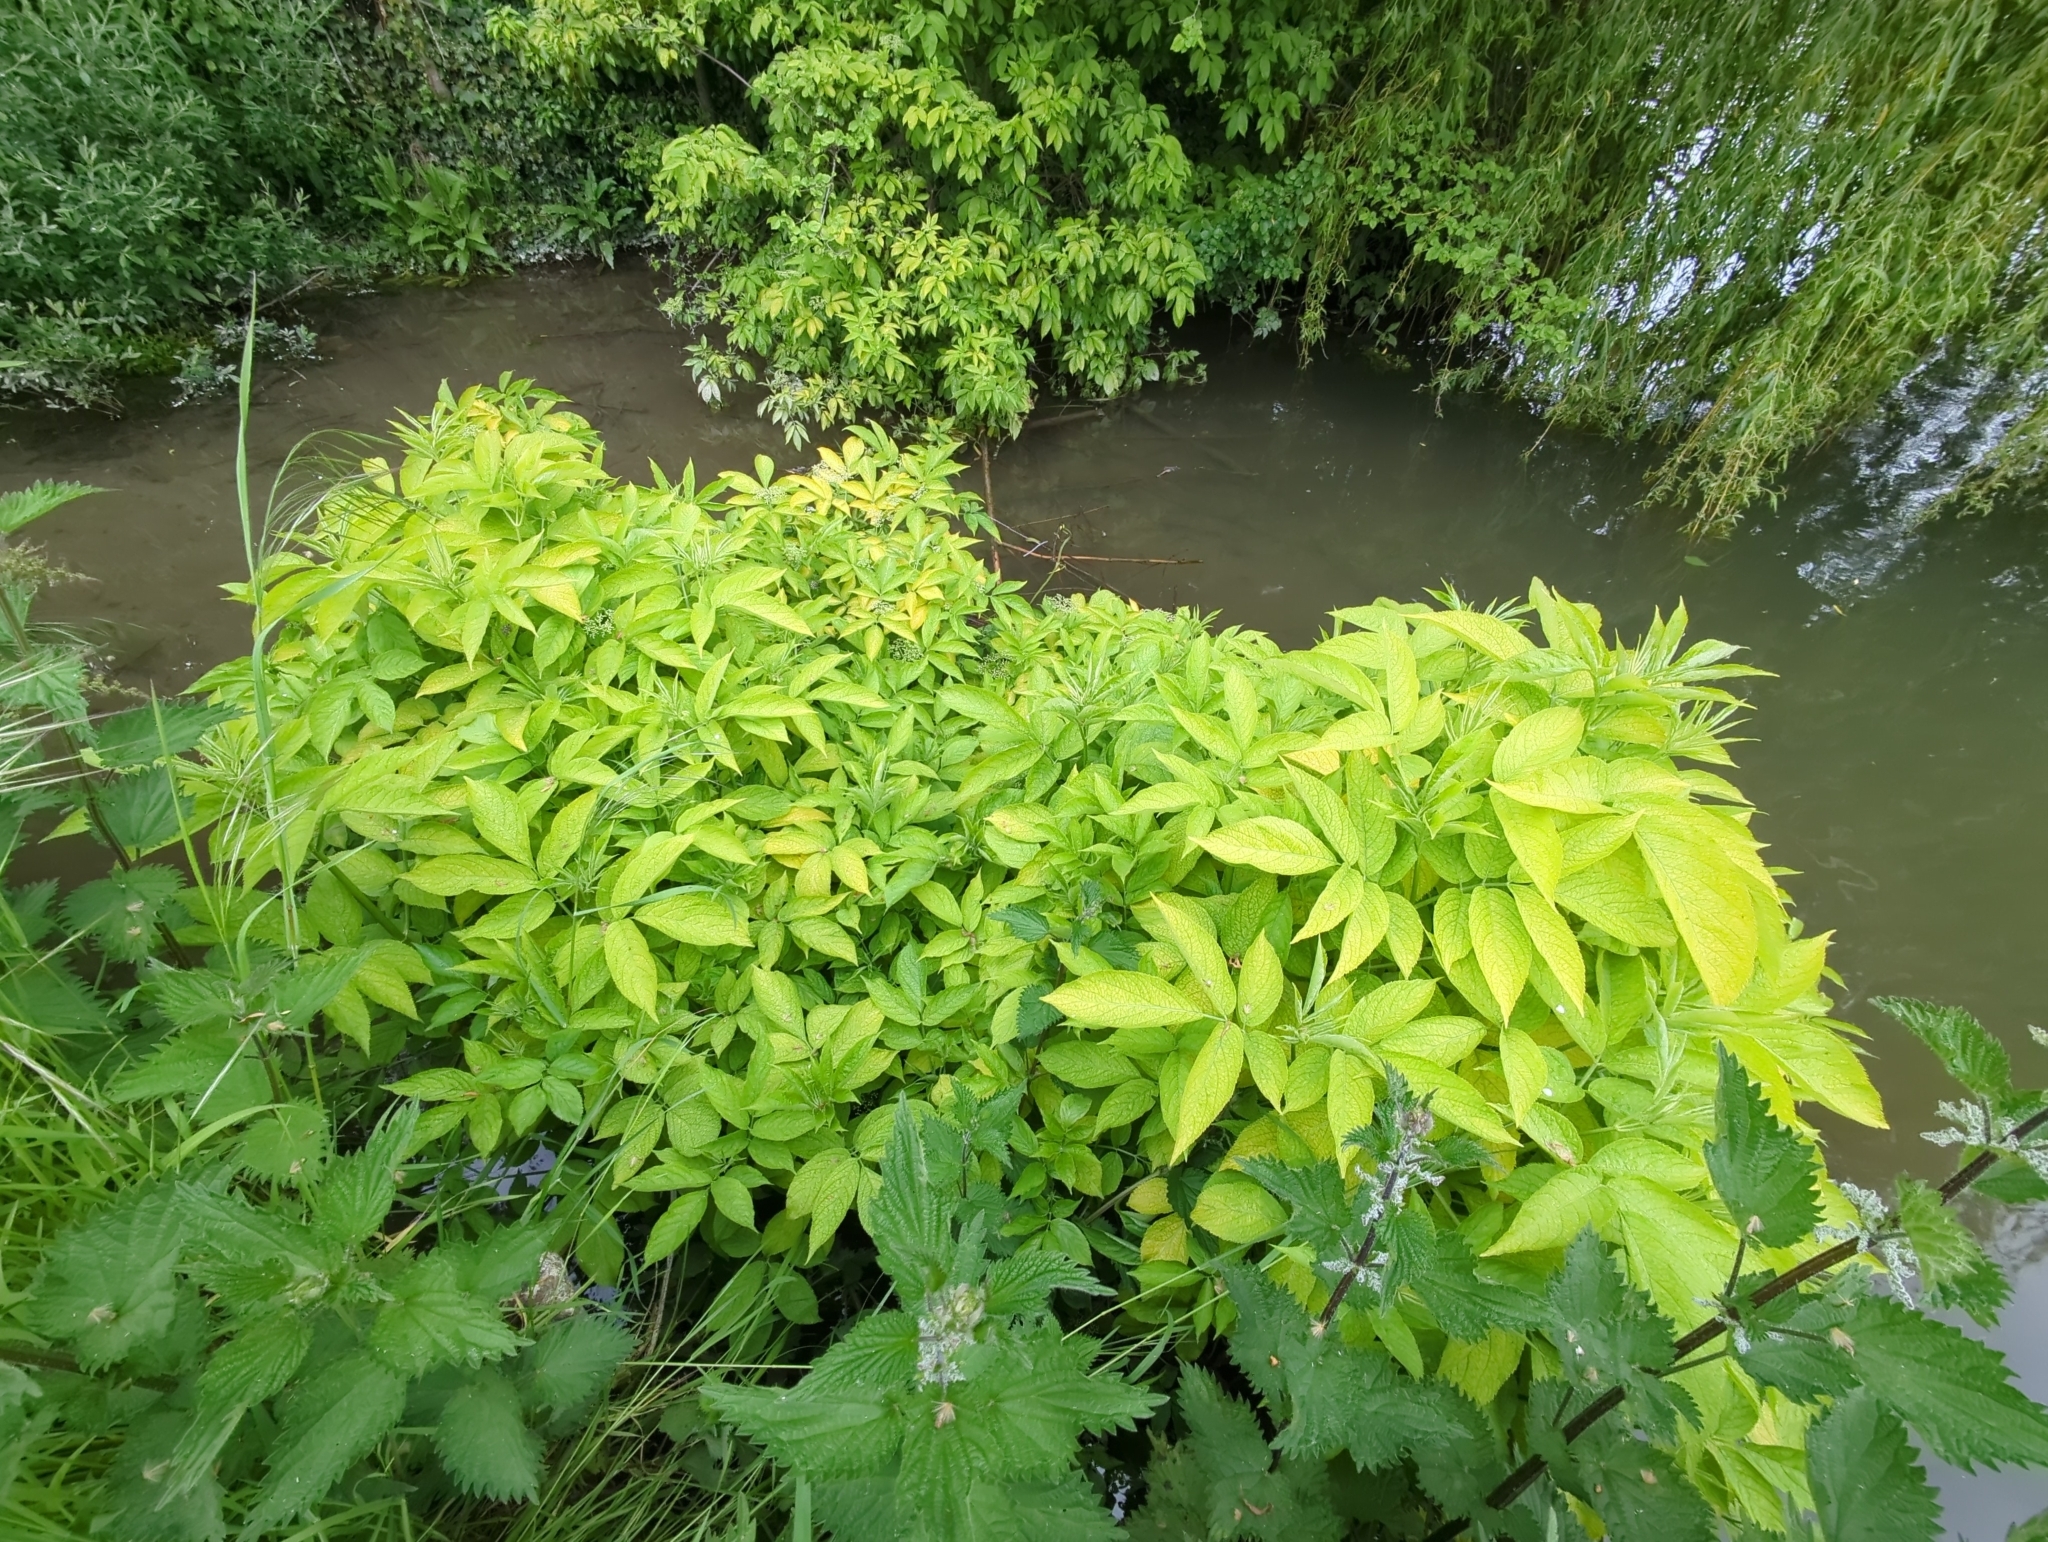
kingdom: Plantae
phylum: Tracheophyta
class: Magnoliopsida
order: Dipsacales
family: Viburnaceae
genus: Sambucus
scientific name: Sambucus nigra
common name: Elder
